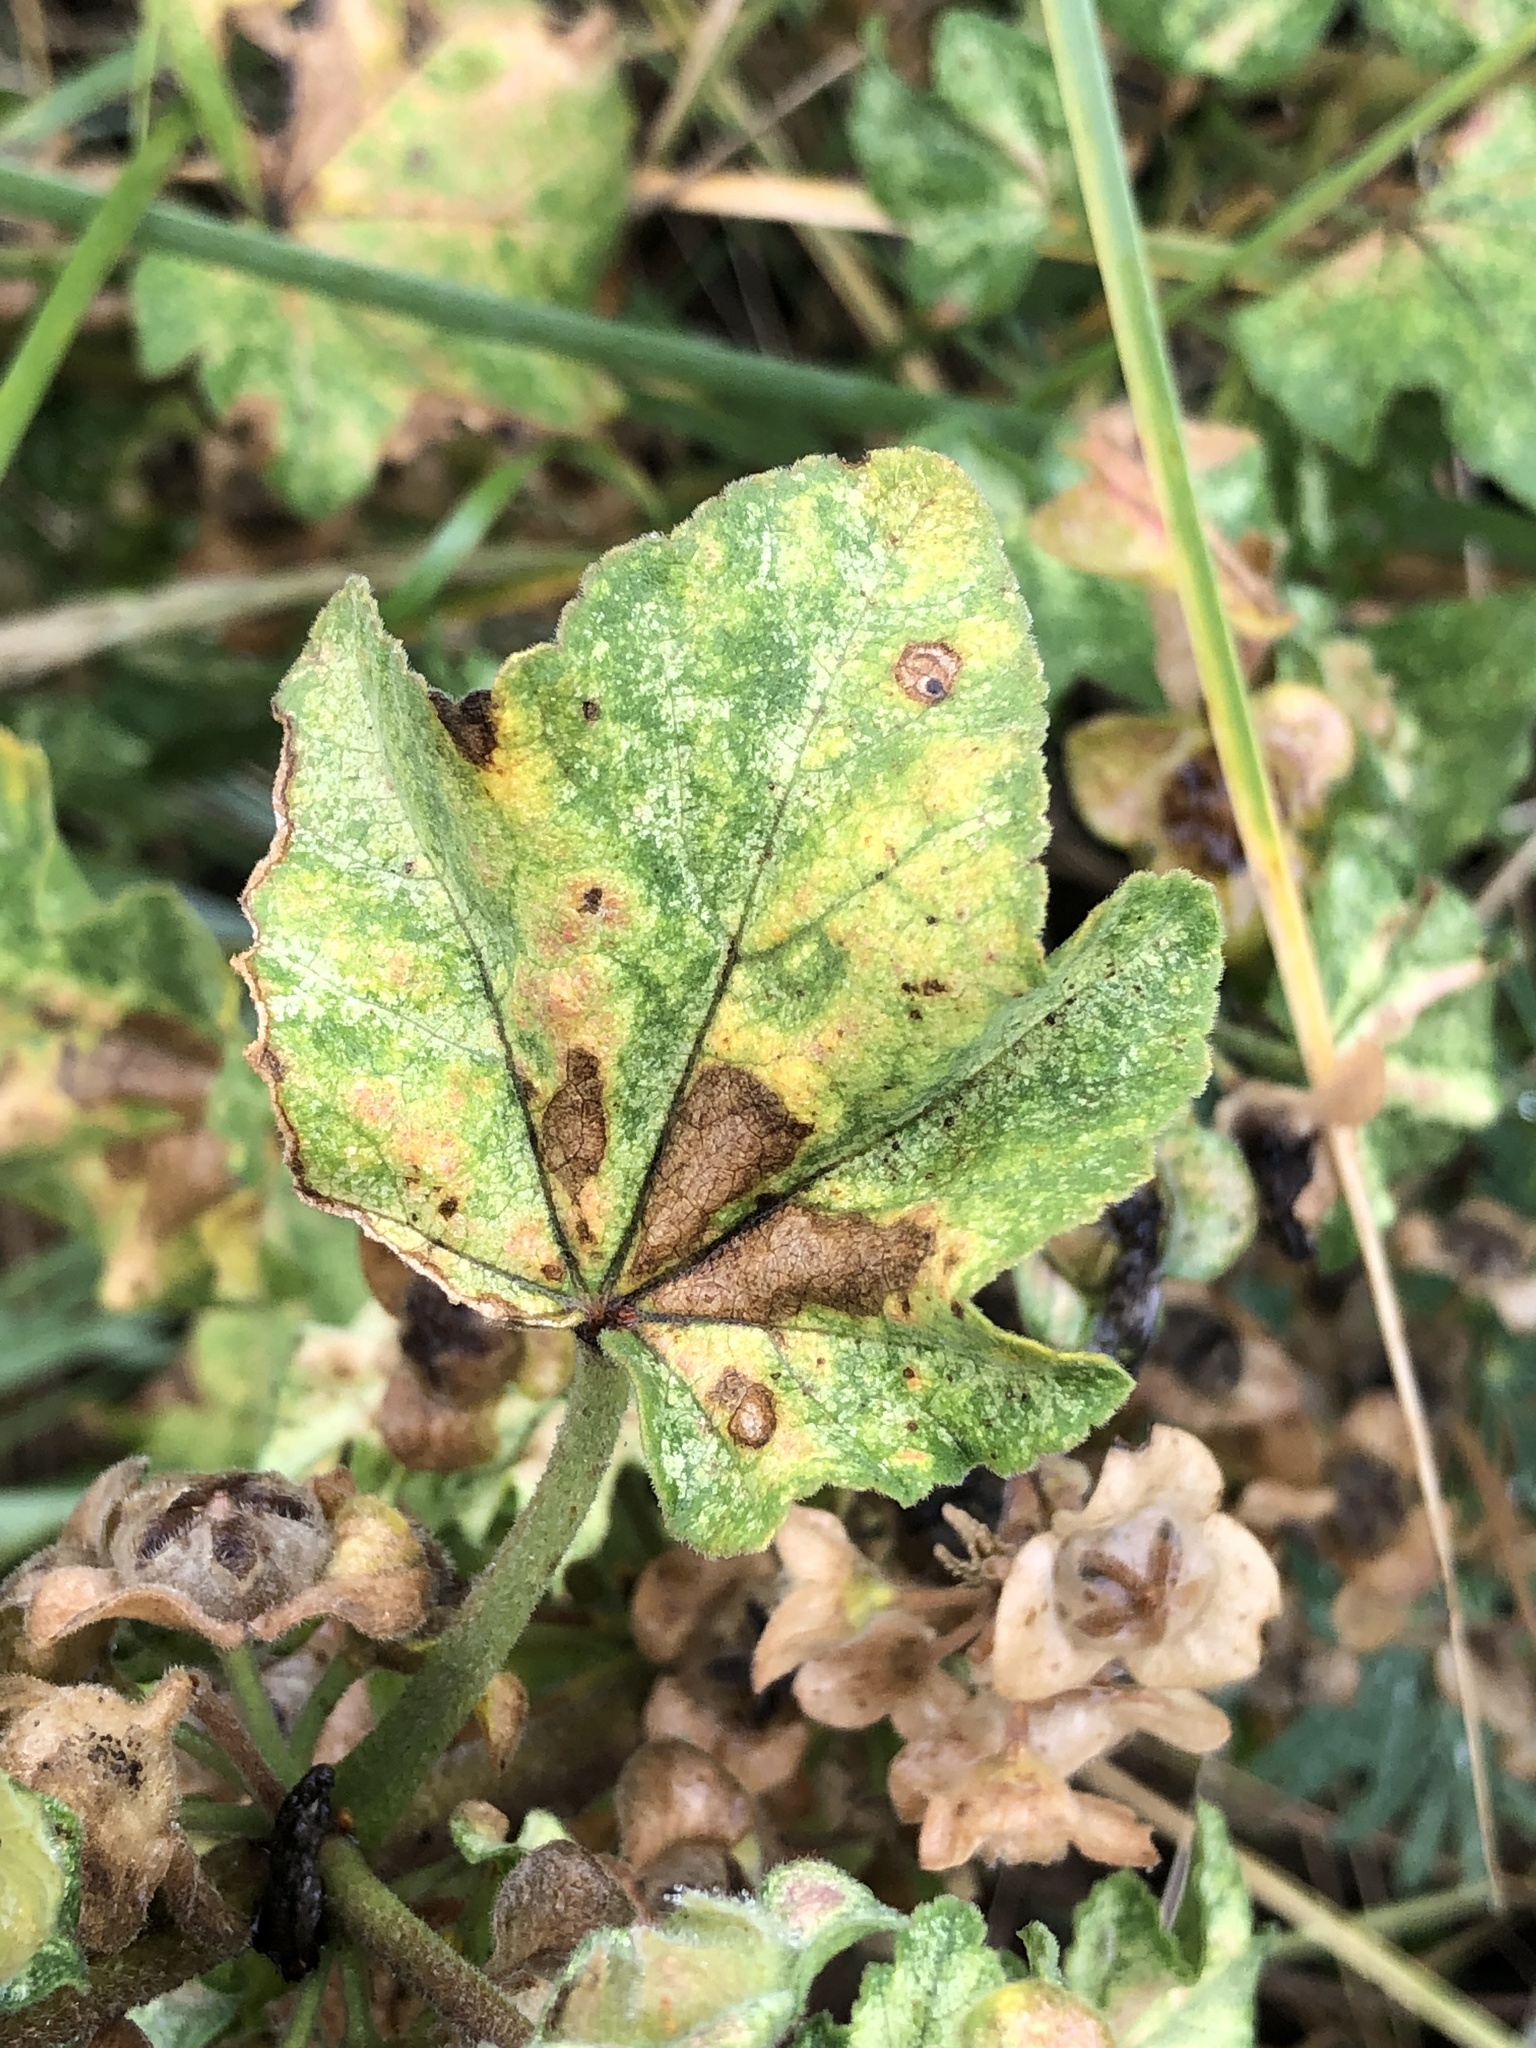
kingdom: Plantae
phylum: Tracheophyta
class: Magnoliopsida
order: Malvales
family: Malvaceae
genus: Malva
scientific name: Malva arborea
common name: Tree mallow
